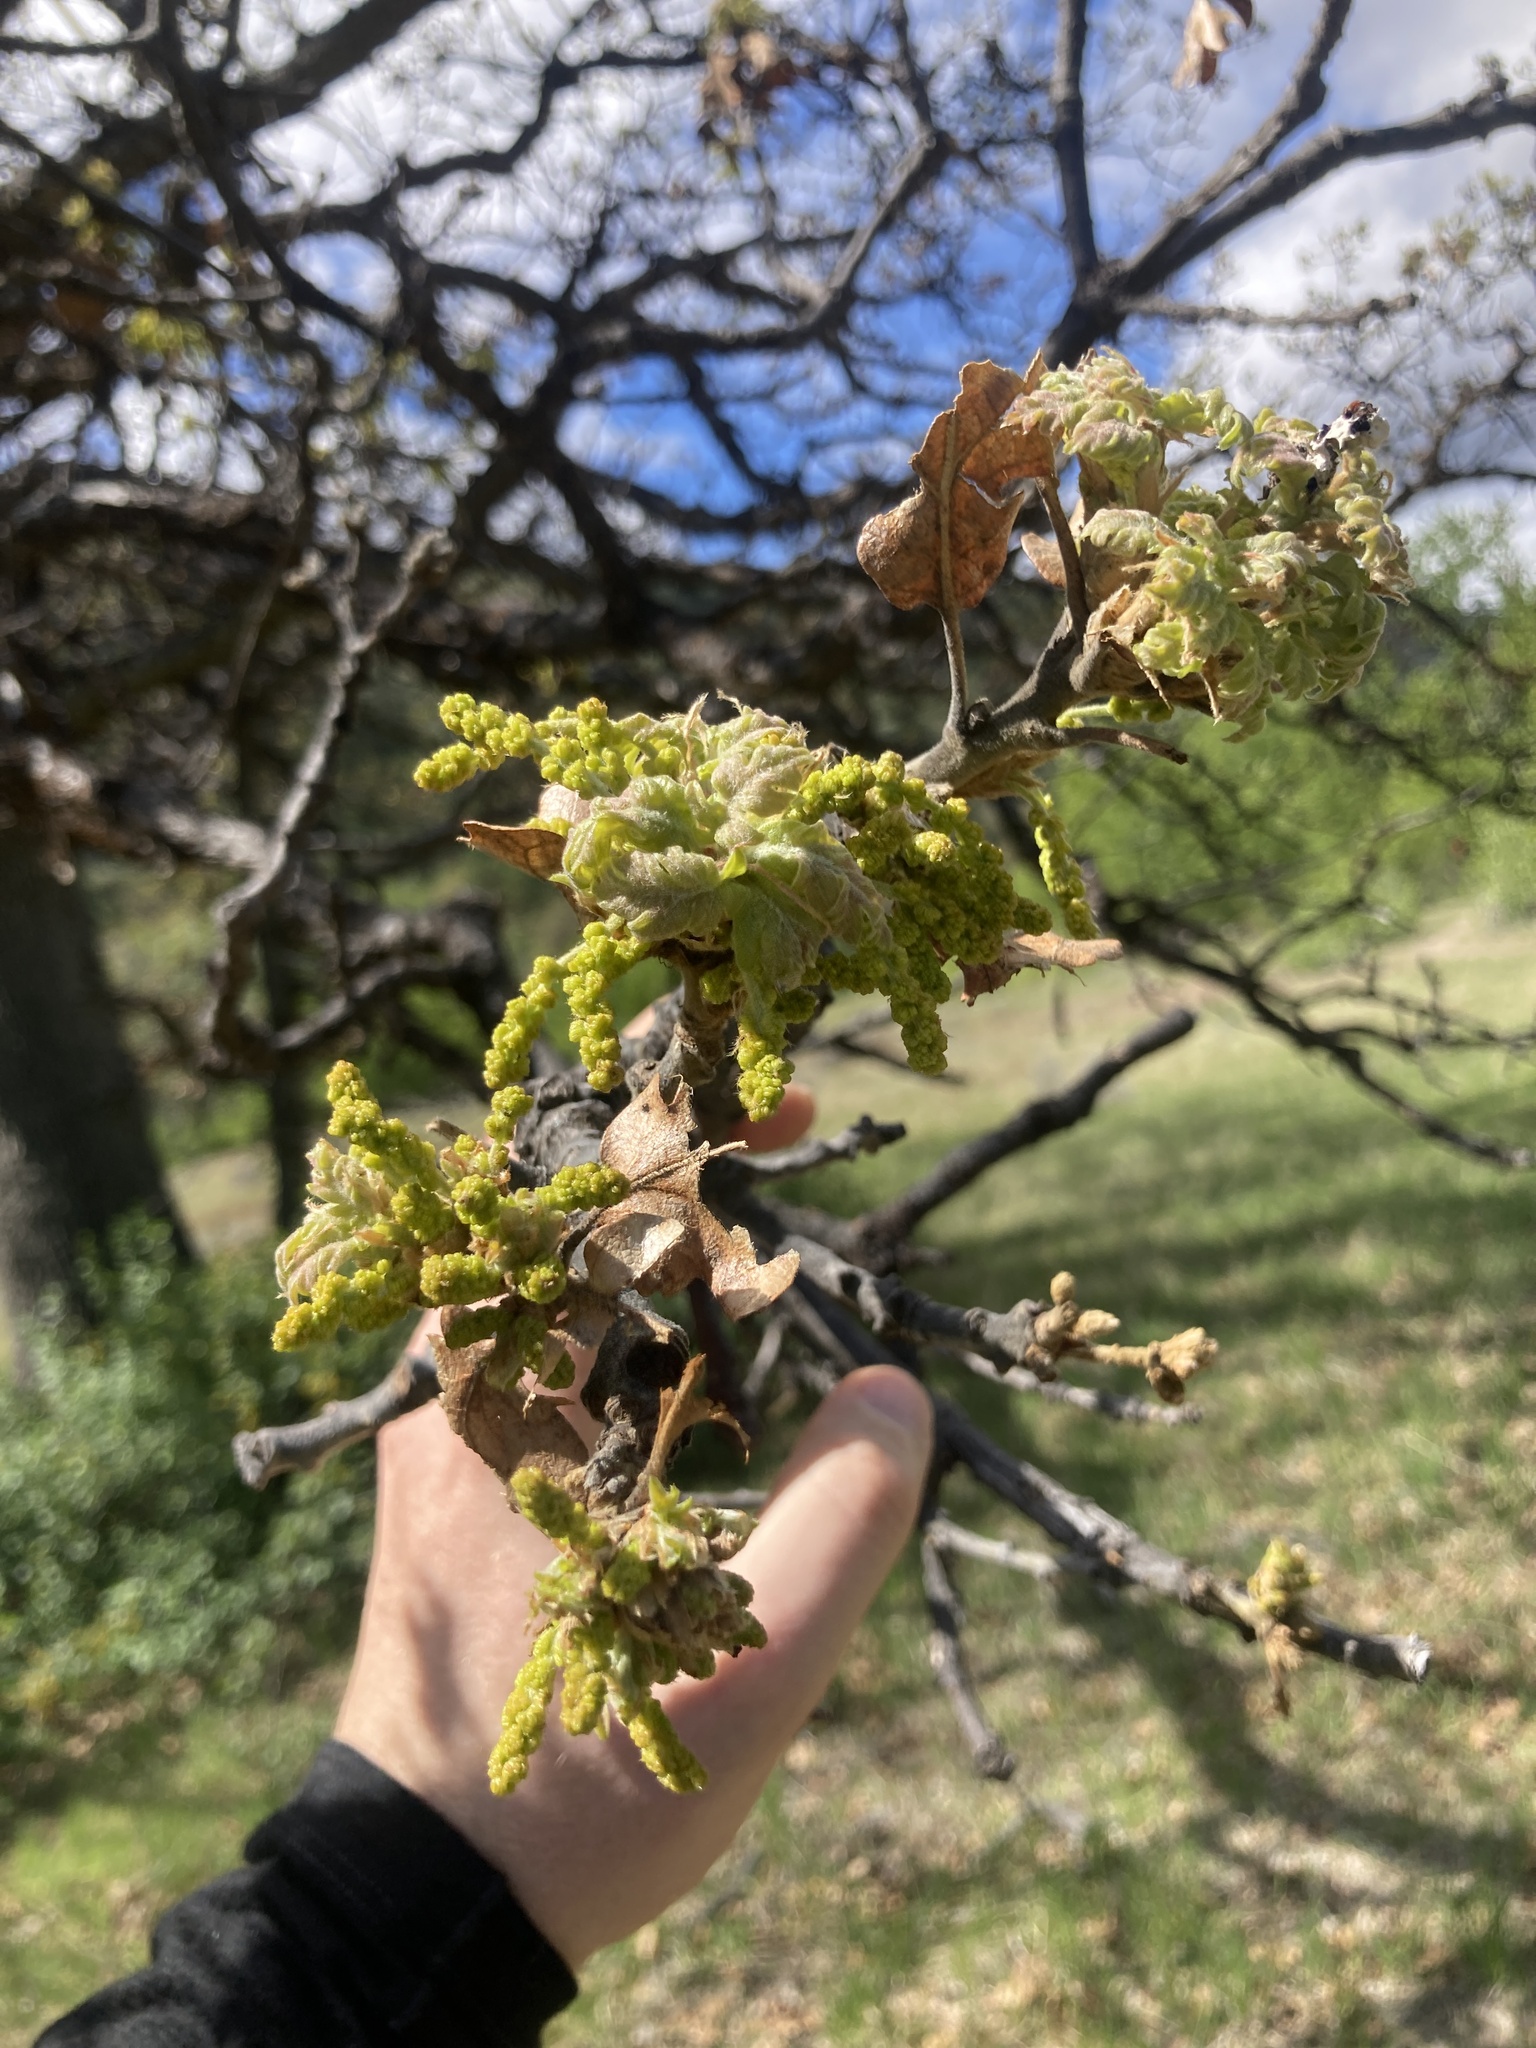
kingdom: Plantae
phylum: Tracheophyta
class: Magnoliopsida
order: Fagales
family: Fagaceae
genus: Quercus
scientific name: Quercus garryana
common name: Garry oak
